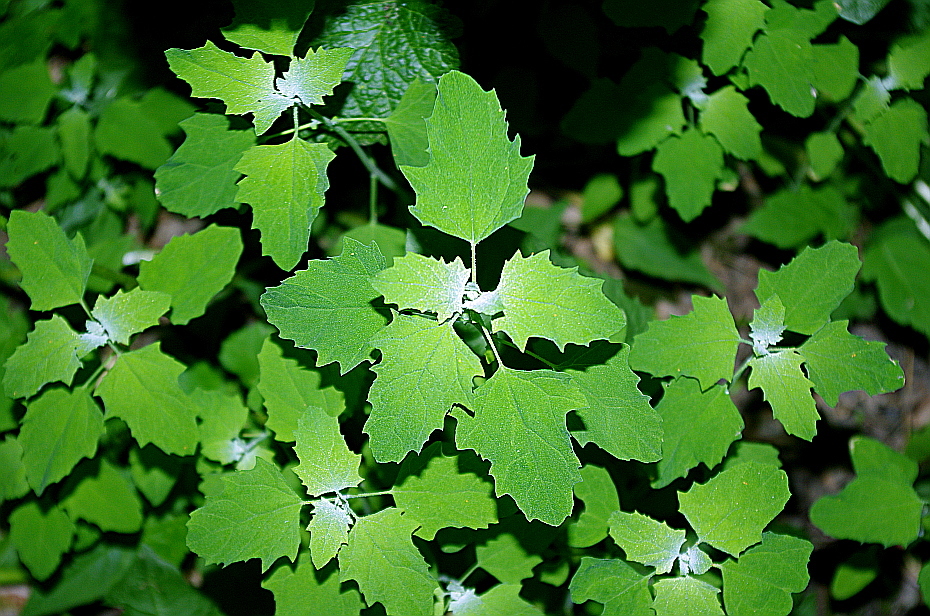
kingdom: Plantae
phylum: Tracheophyta
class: Magnoliopsida
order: Caryophyllales
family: Amaranthaceae
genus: Chenopodium
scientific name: Chenopodium album
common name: Fat-hen
